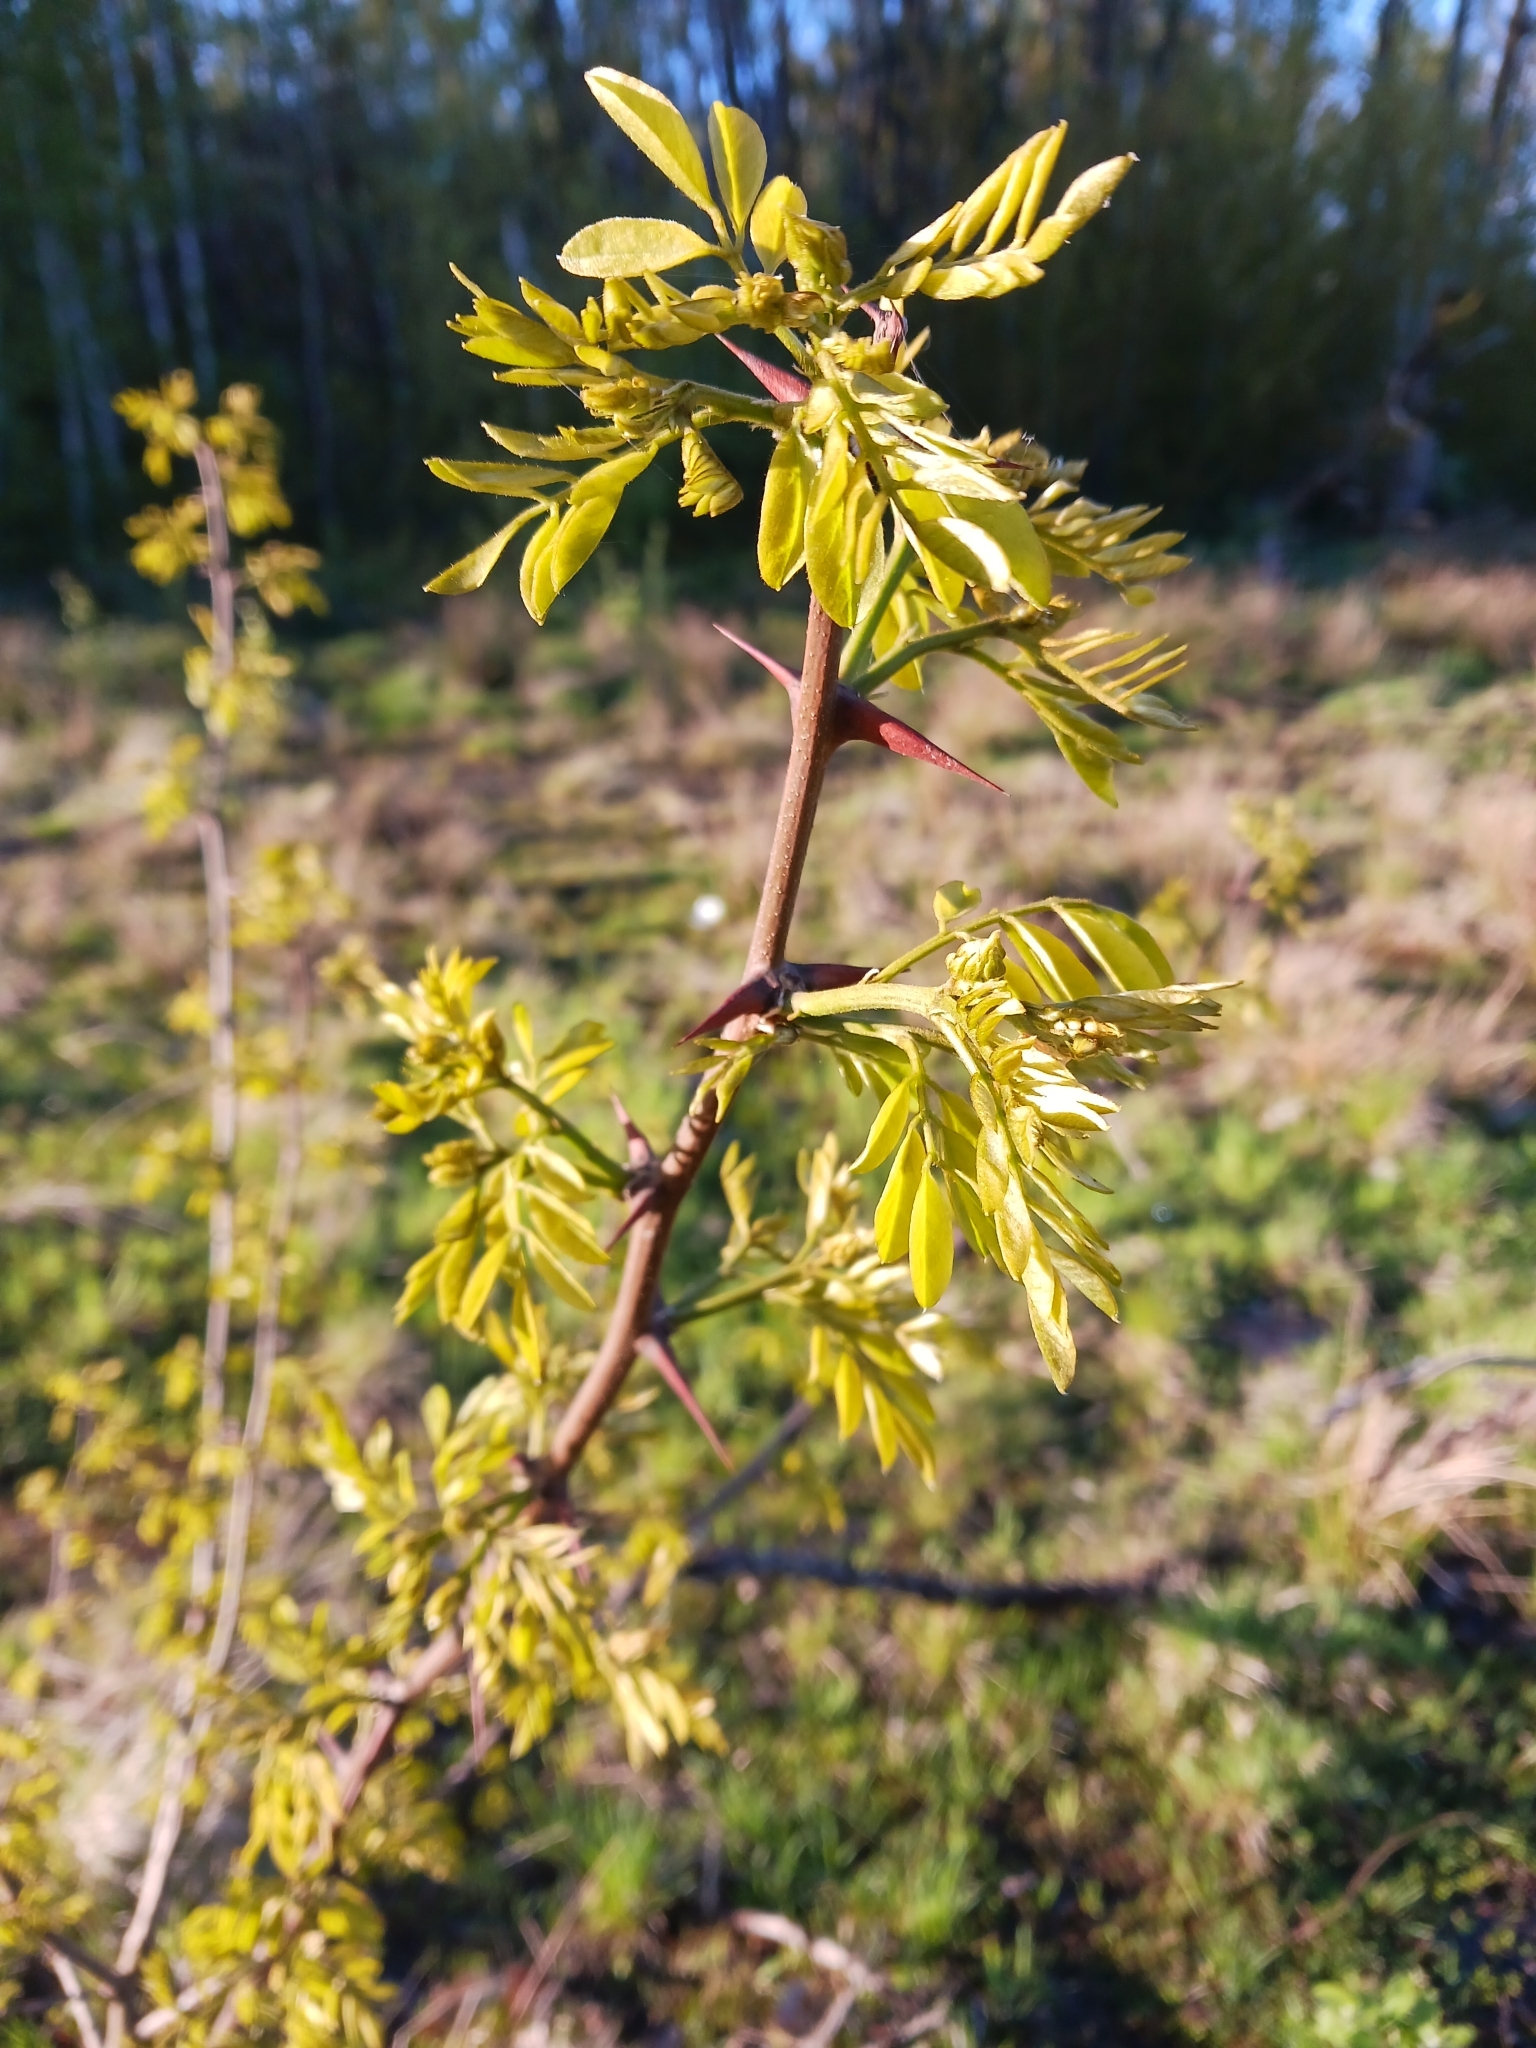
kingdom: Plantae
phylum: Tracheophyta
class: Magnoliopsida
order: Fabales
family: Fabaceae
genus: Robinia
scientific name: Robinia pseudoacacia
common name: Black locust
